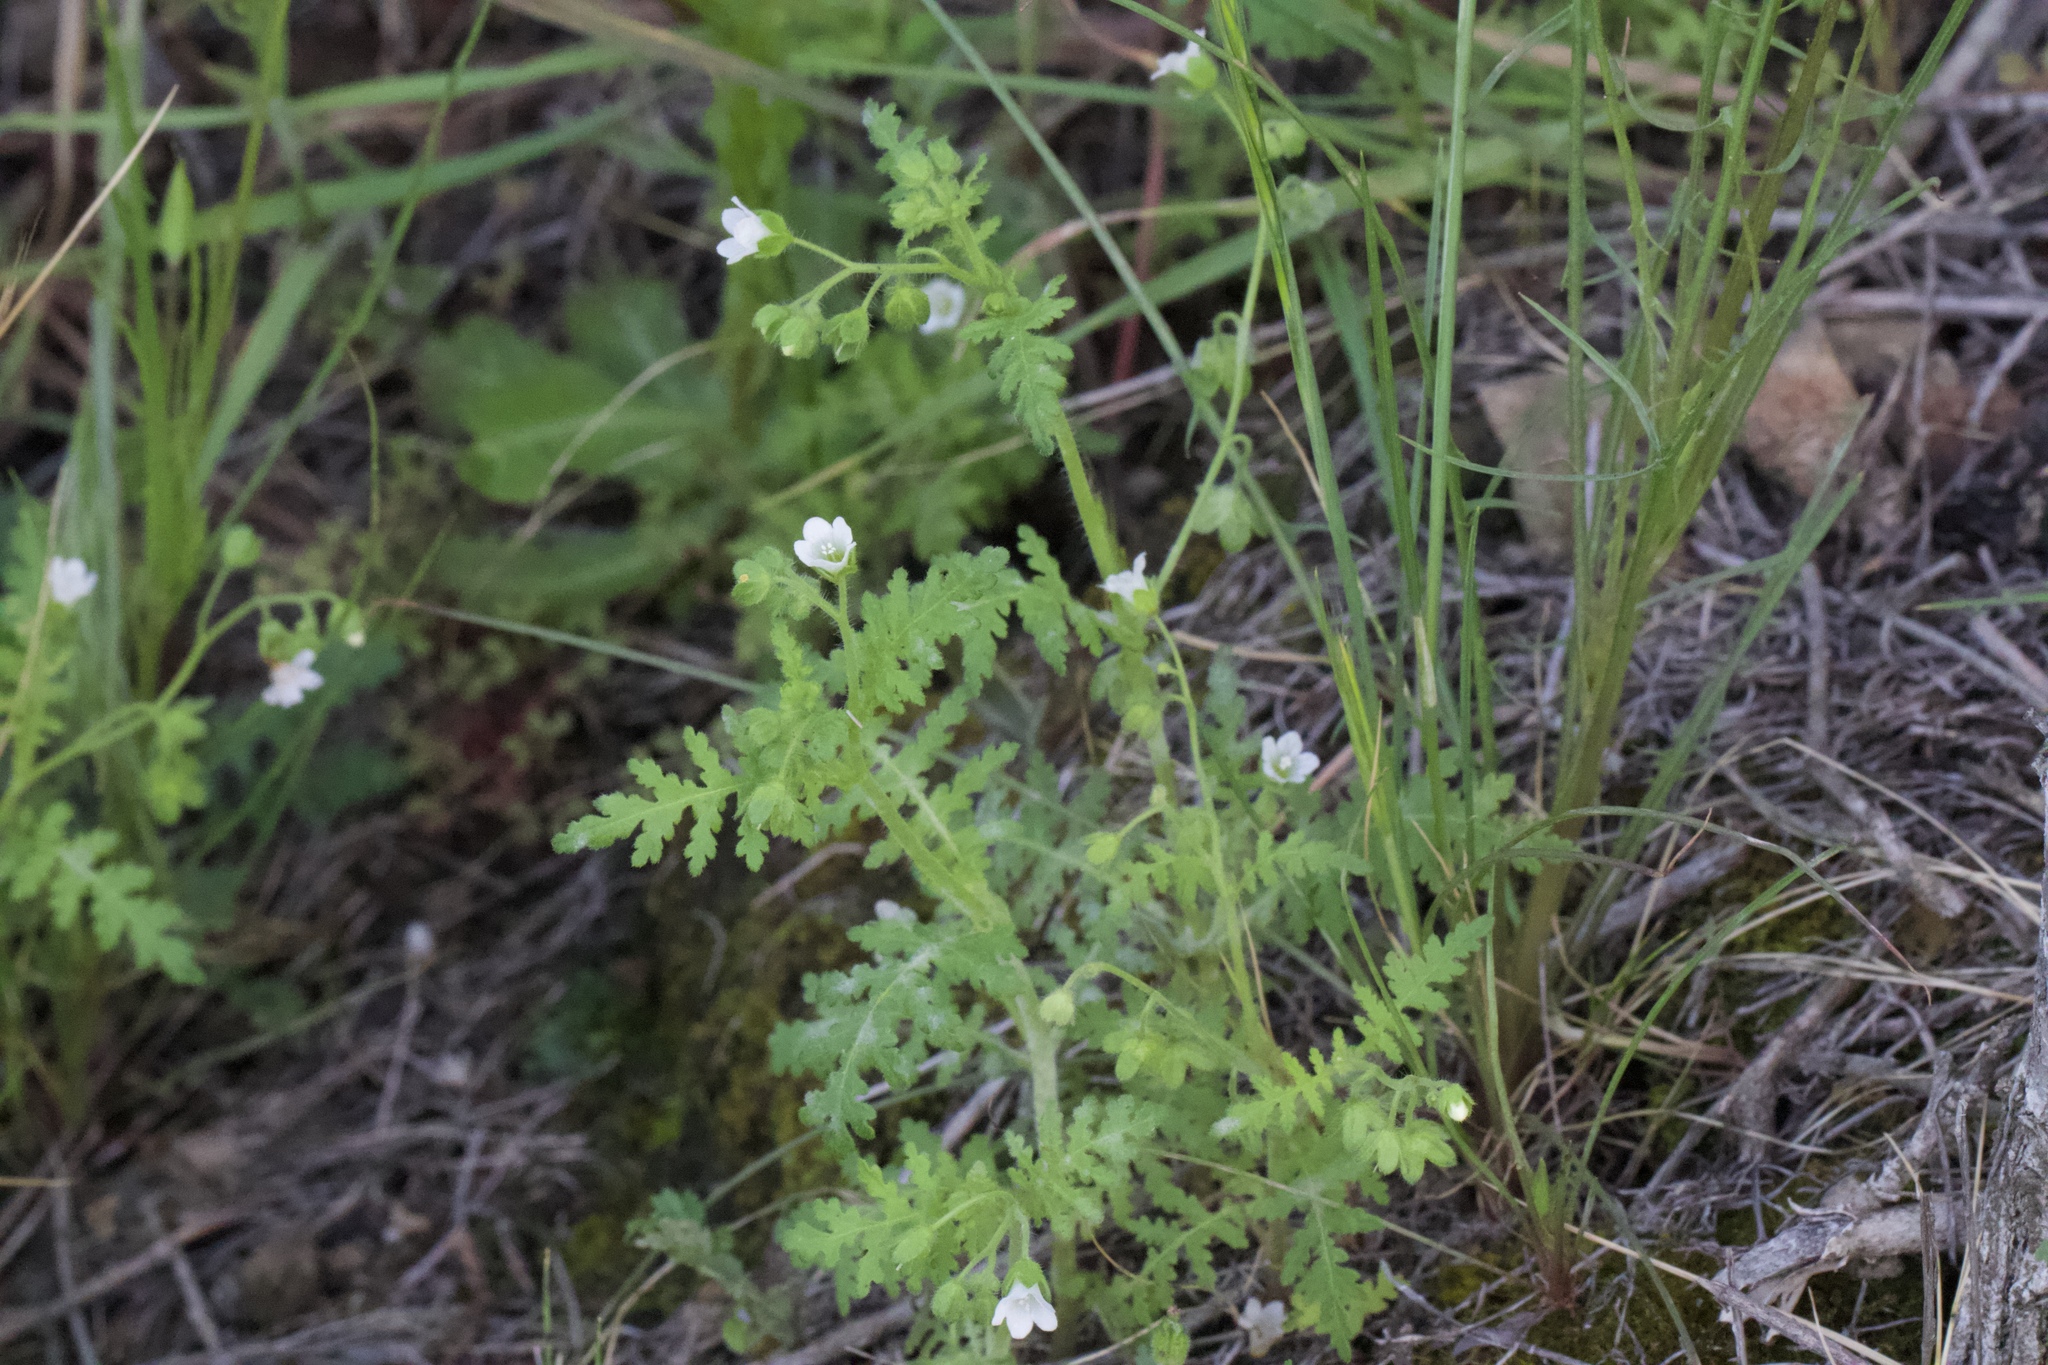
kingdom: Plantae
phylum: Tracheophyta
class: Magnoliopsida
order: Boraginales
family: Hydrophyllaceae
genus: Eucrypta
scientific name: Eucrypta chrysanthemifolia
